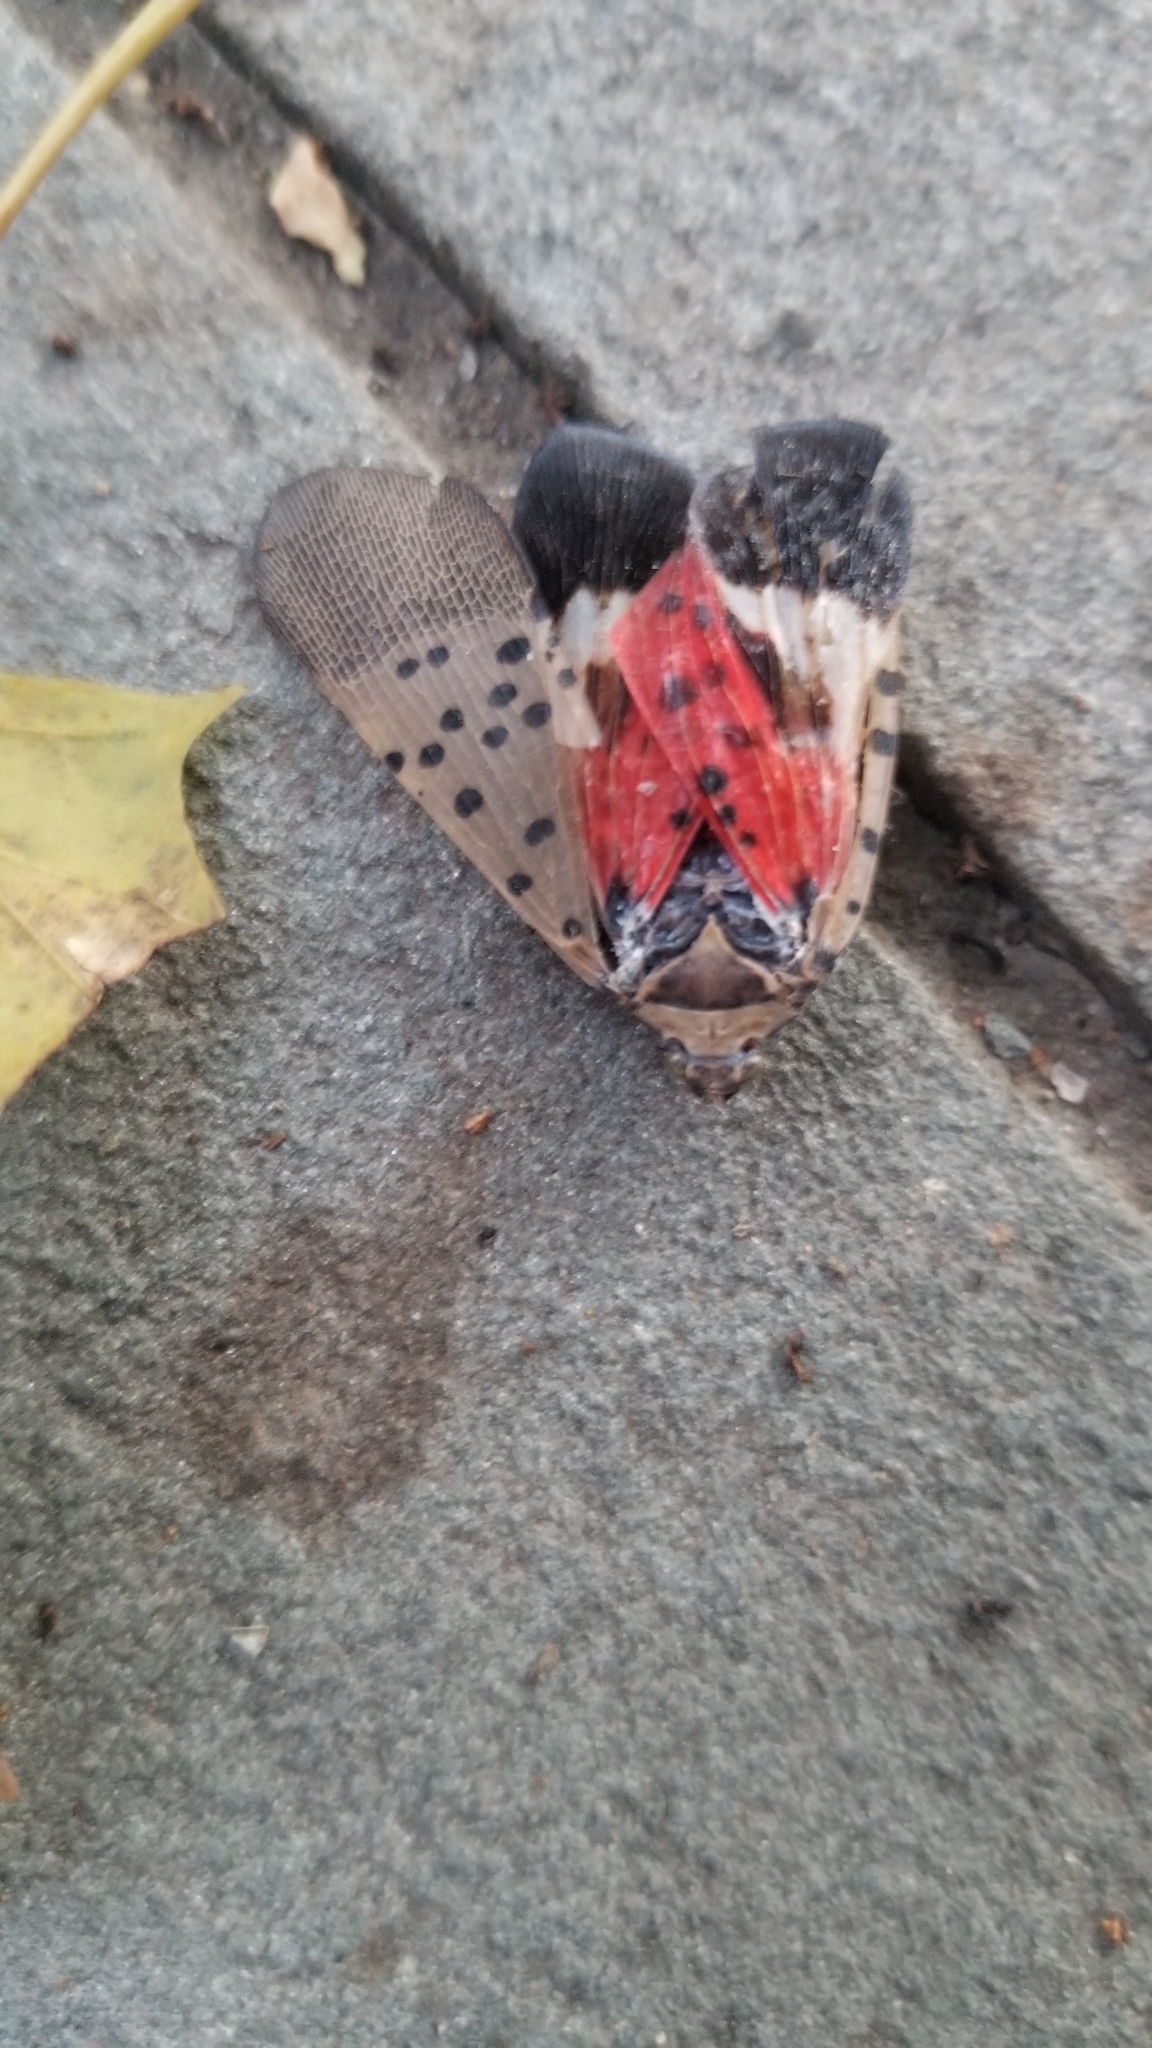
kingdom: Animalia
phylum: Arthropoda
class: Insecta
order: Hemiptera
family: Fulgoridae
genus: Lycorma
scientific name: Lycorma delicatula
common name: Spotted lanternfly
